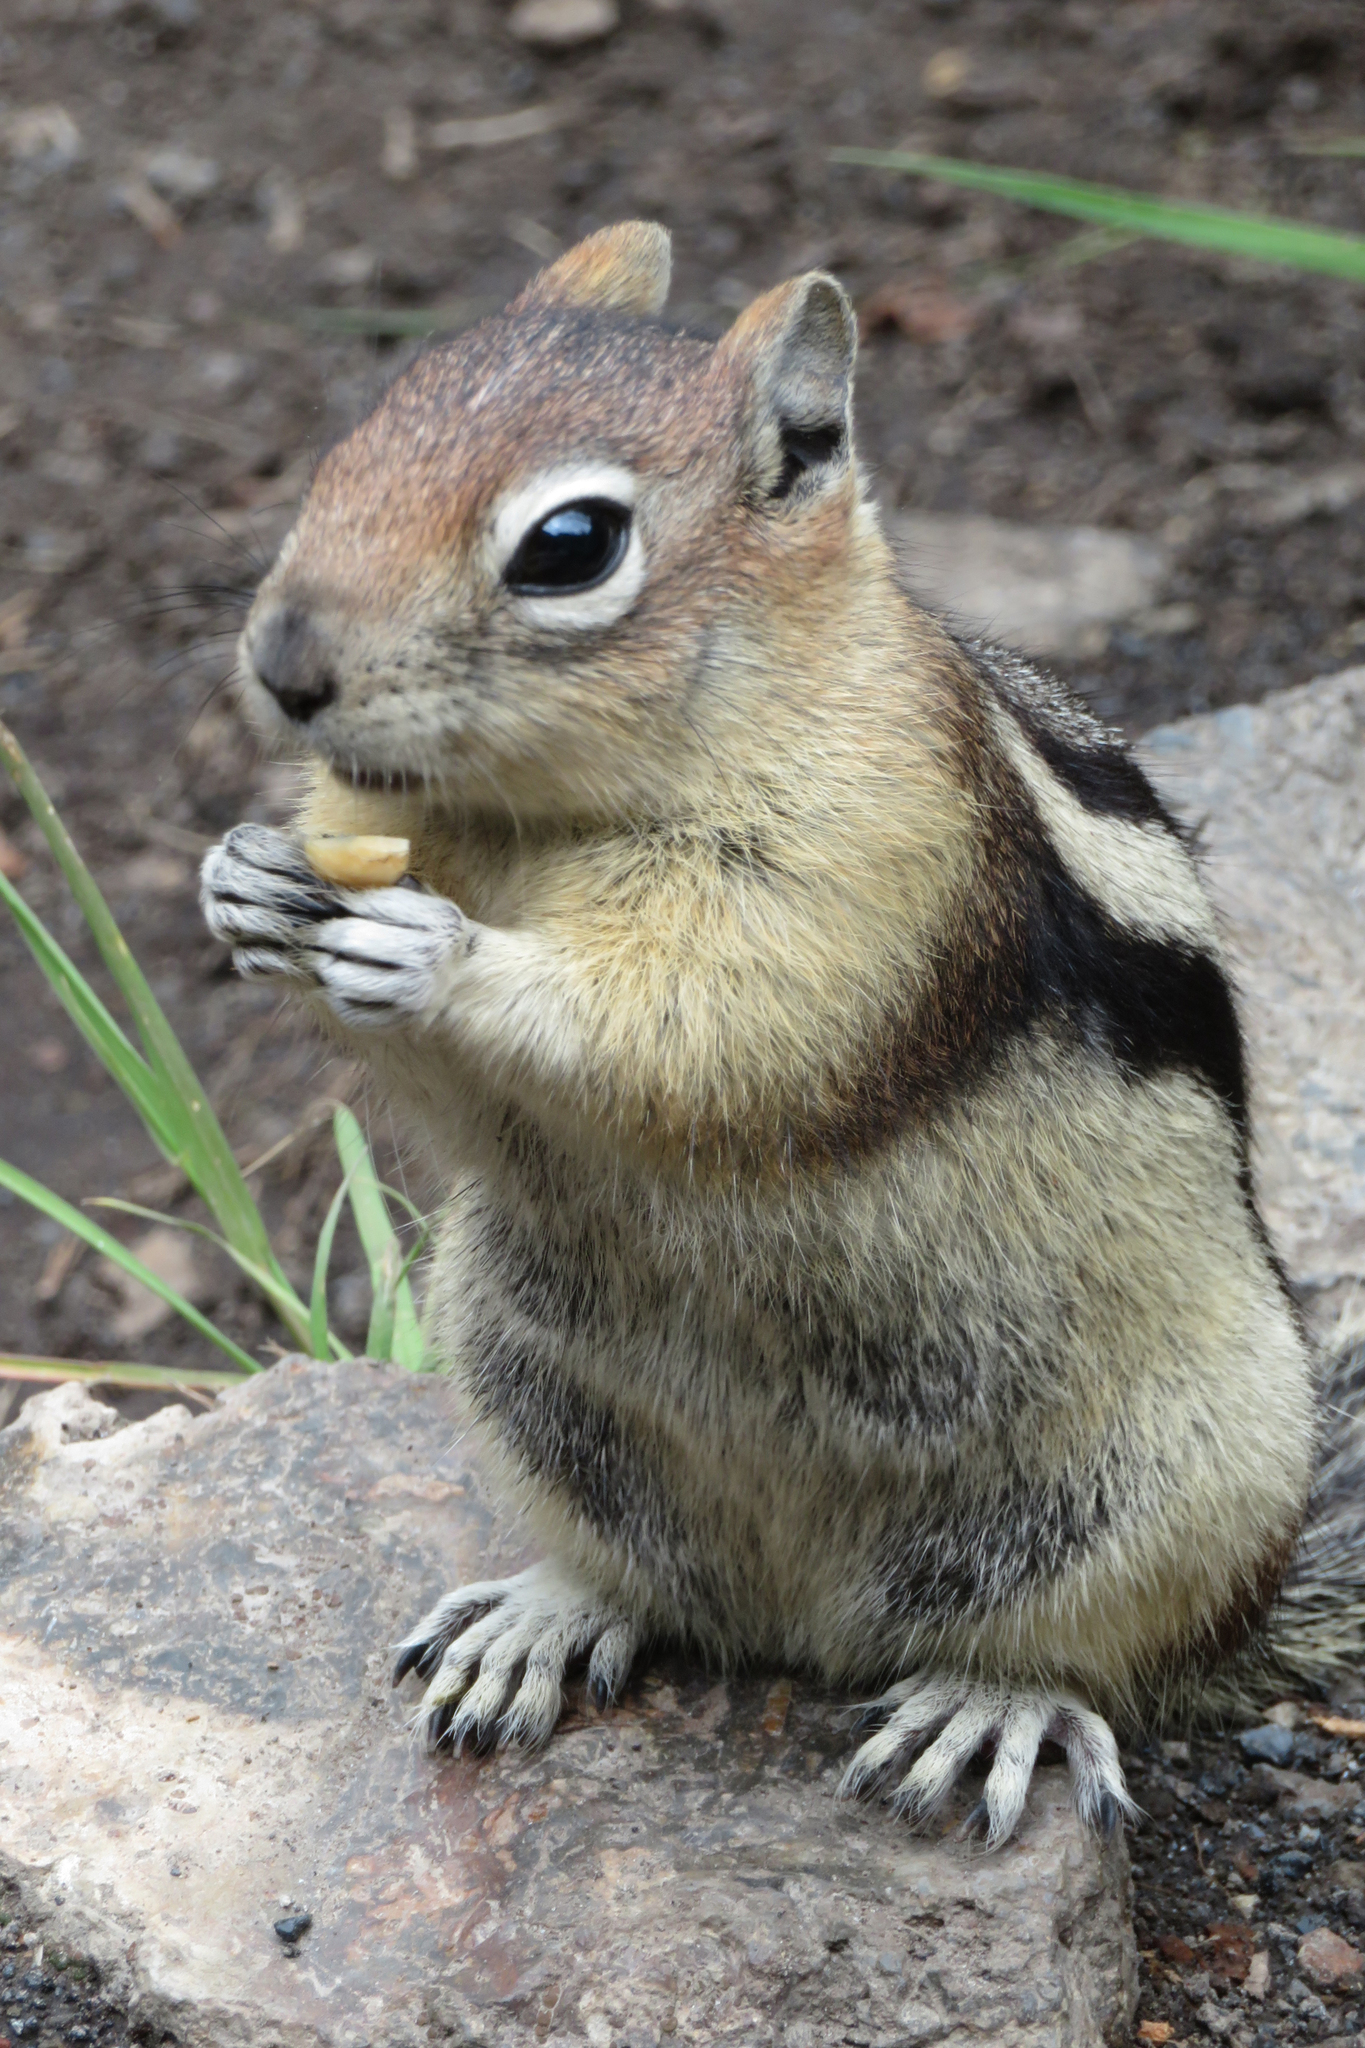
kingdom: Animalia
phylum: Chordata
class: Mammalia
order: Rodentia
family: Sciuridae
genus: Callospermophilus
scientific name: Callospermophilus lateralis
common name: Golden-mantled ground squirrel
